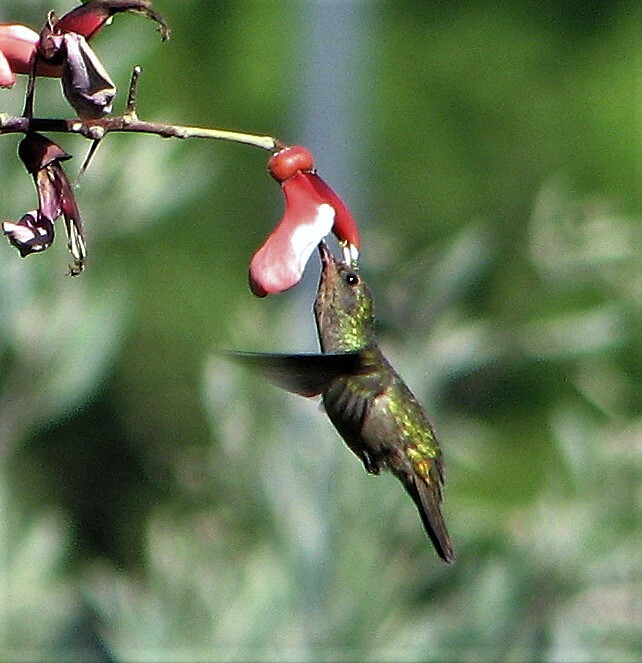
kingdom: Animalia
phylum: Chordata
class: Aves
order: Apodiformes
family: Trochilidae
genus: Hylocharis
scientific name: Hylocharis chrysura
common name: Gilded sapphire
